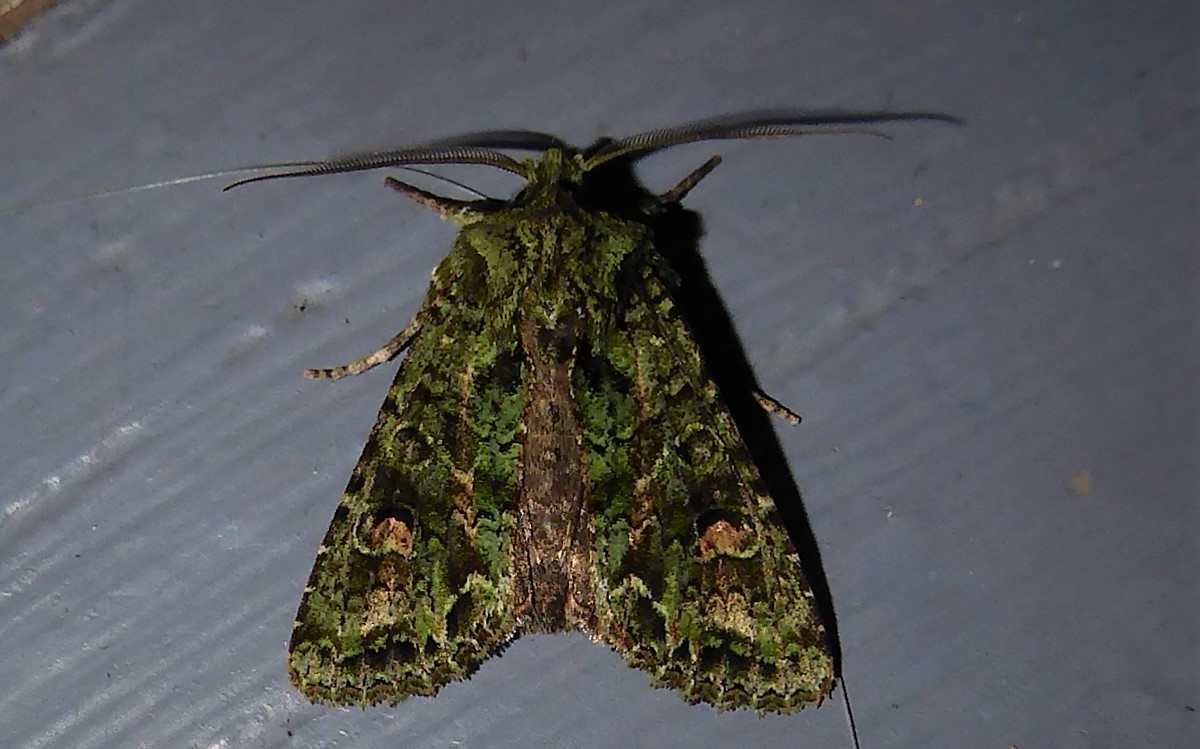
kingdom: Animalia
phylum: Arthropoda
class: Insecta
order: Lepidoptera
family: Noctuidae
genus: Ichneutica
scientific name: Ichneutica
